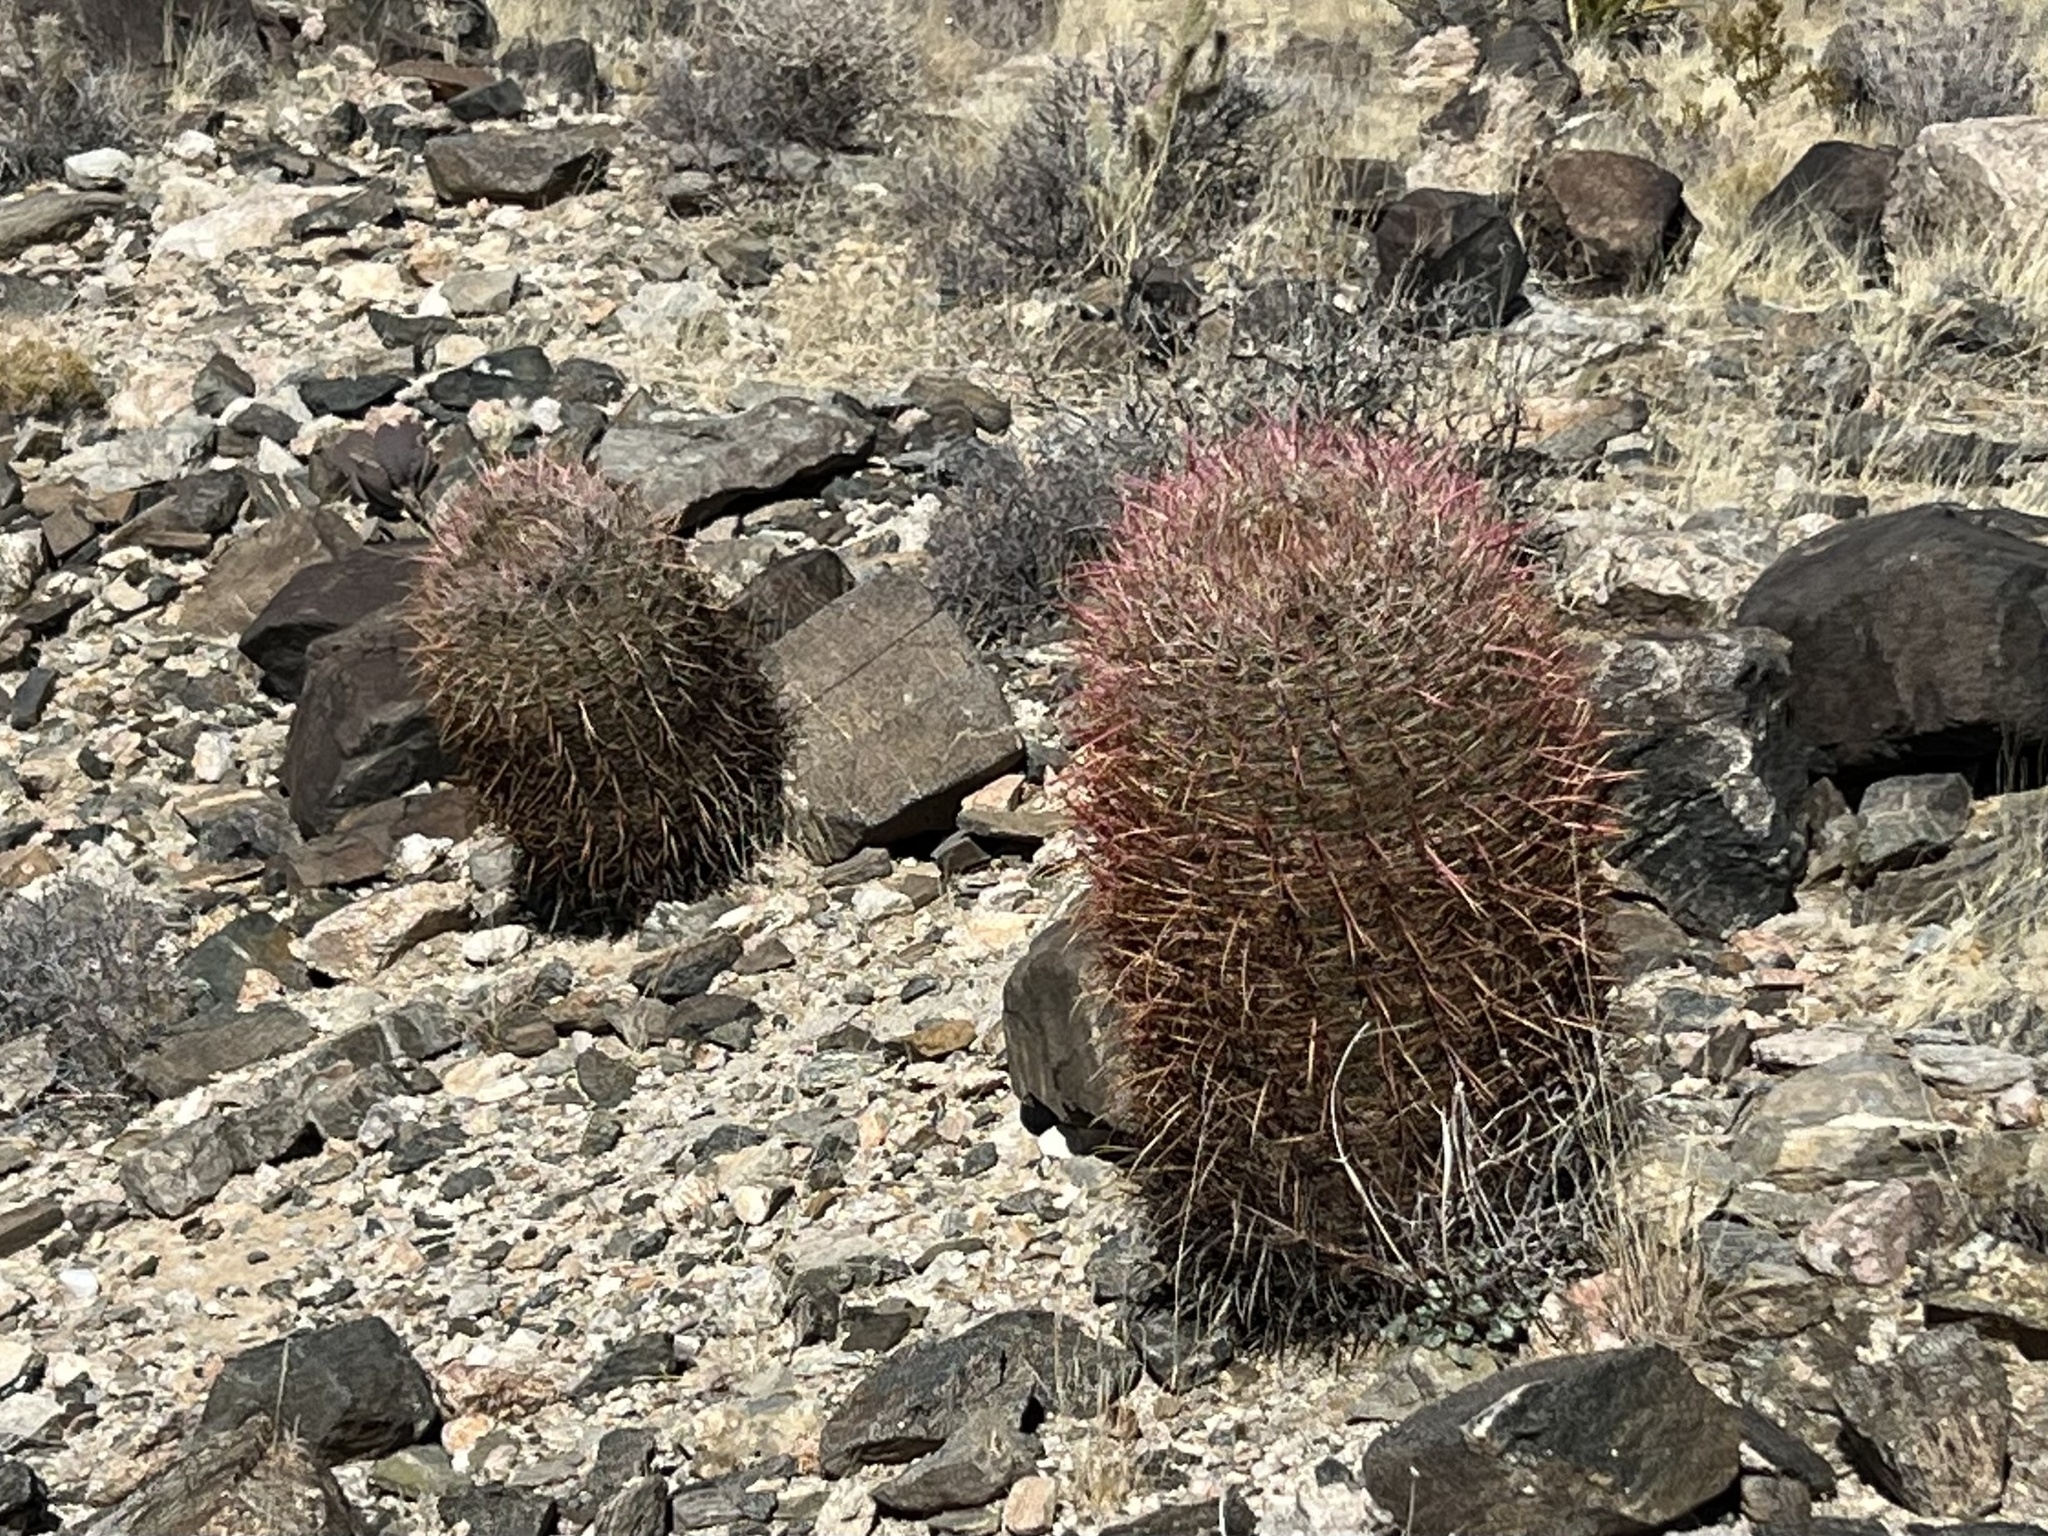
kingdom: Plantae
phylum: Tracheophyta
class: Magnoliopsida
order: Caryophyllales
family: Cactaceae
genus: Ferocactus
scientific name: Ferocactus cylindraceus
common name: California barrel cactus
